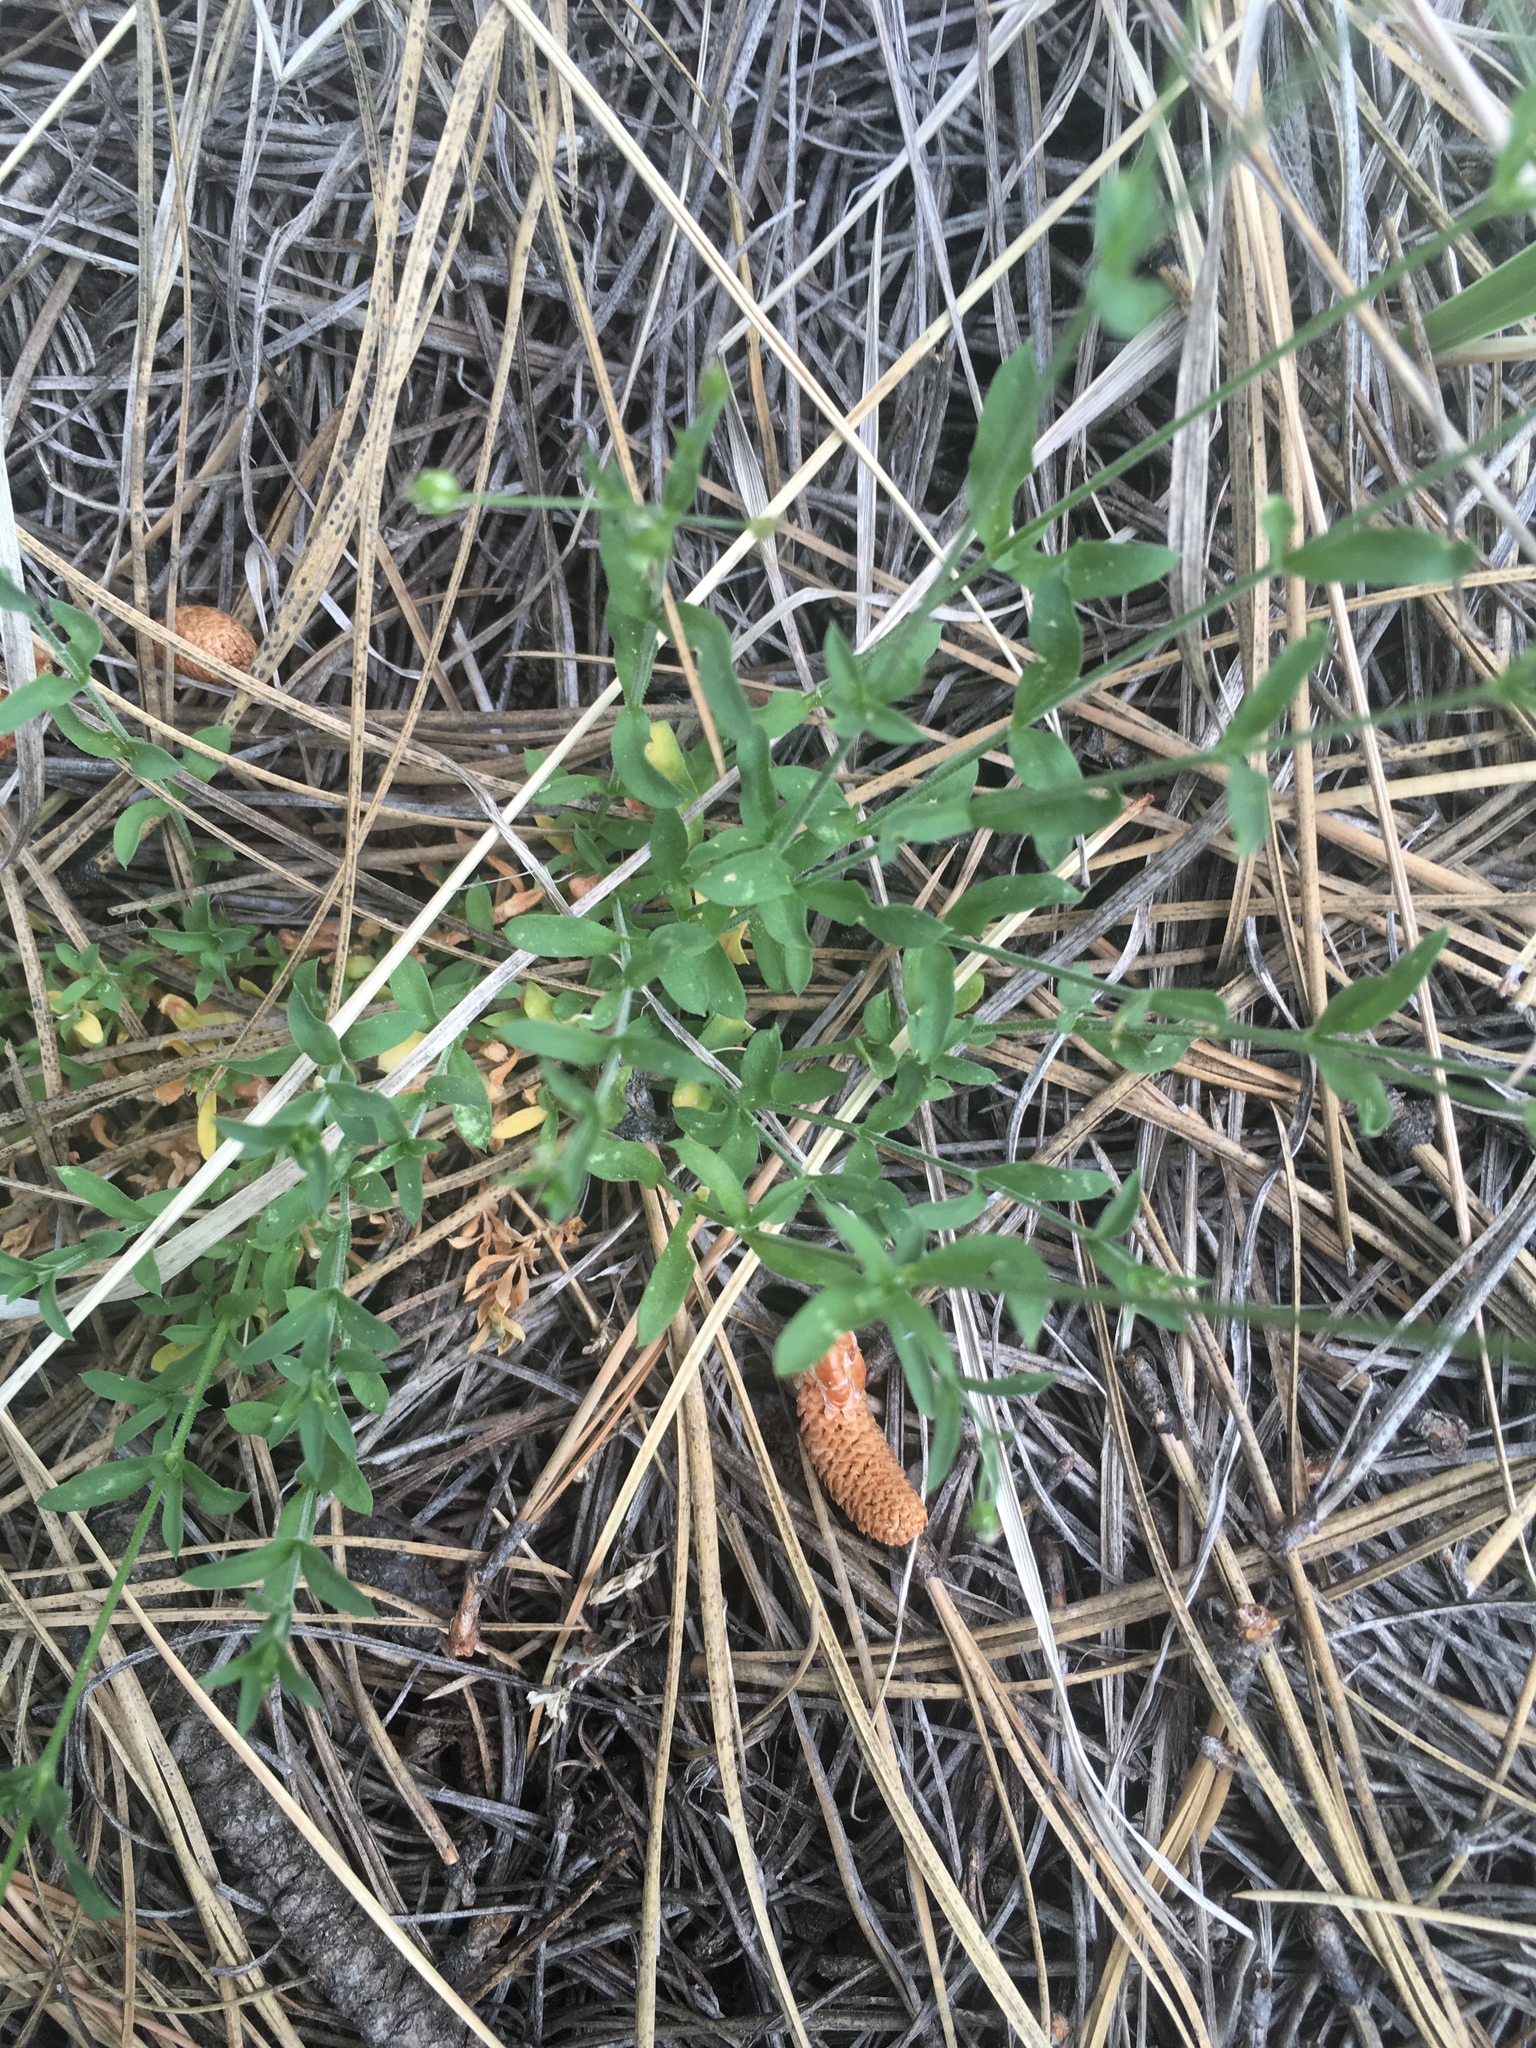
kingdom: Plantae
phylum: Tracheophyta
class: Magnoliopsida
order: Caryophyllales
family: Caryophyllaceae
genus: Arenaria
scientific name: Arenaria lanuginosa
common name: Spread sandwort
